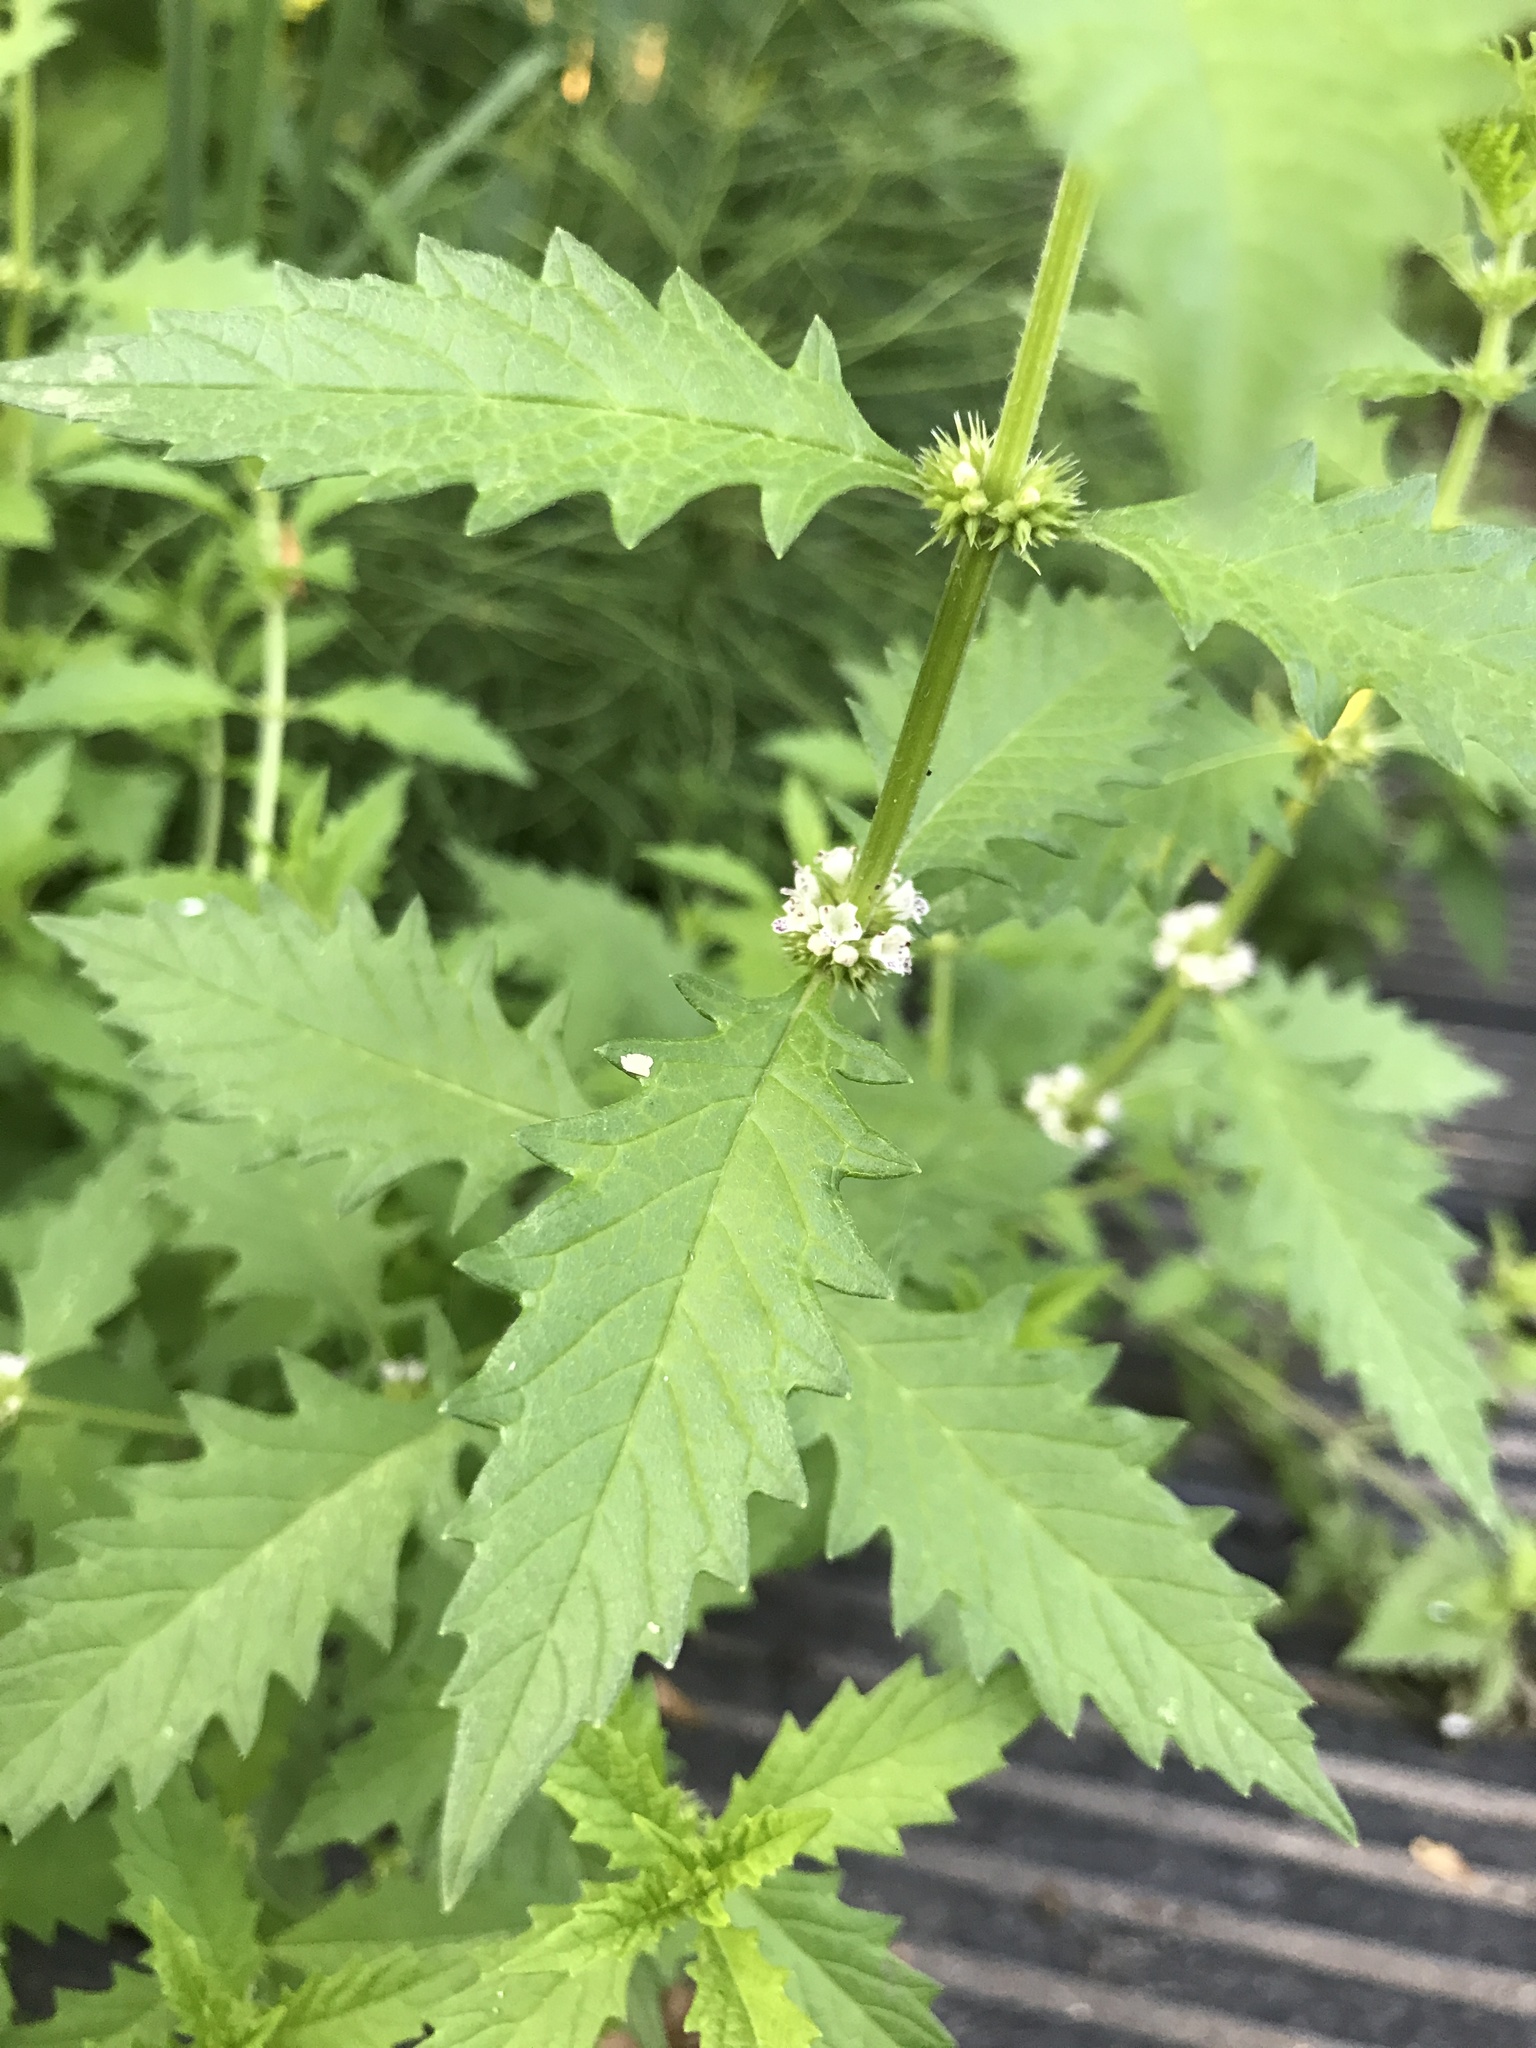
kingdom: Plantae
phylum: Tracheophyta
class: Magnoliopsida
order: Lamiales
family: Lamiaceae
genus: Lycopus
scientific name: Lycopus europaeus
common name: European bugleweed
